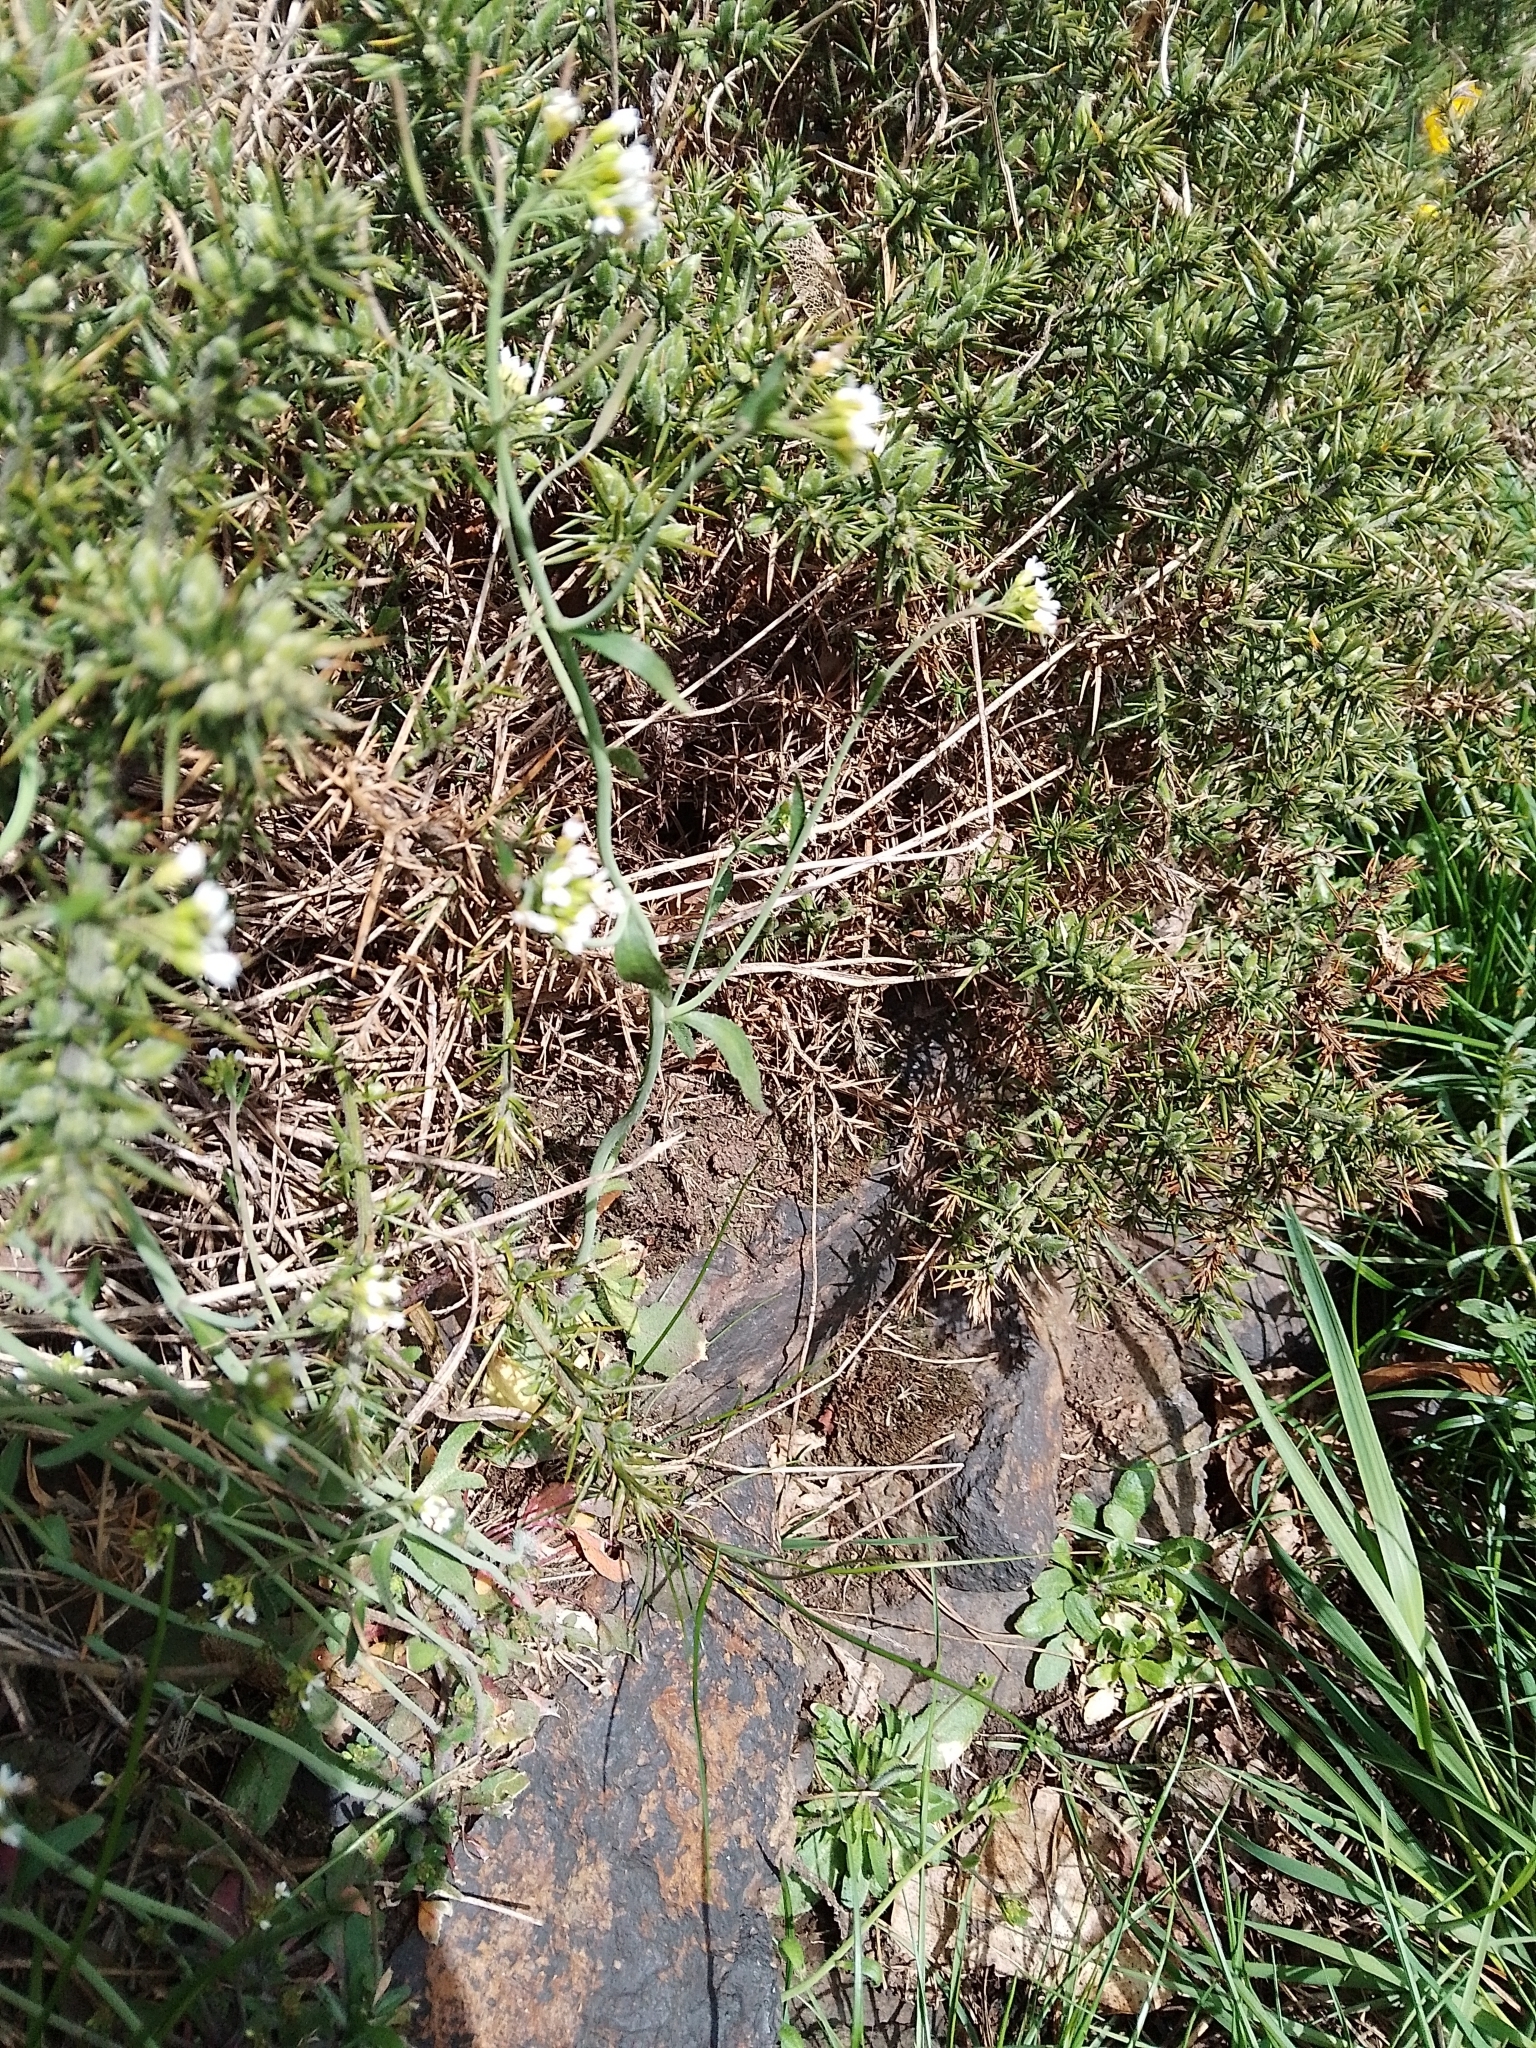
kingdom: Plantae
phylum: Tracheophyta
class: Magnoliopsida
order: Brassicales
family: Brassicaceae
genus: Arabidopsis
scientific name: Arabidopsis thaliana
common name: Thale cress
